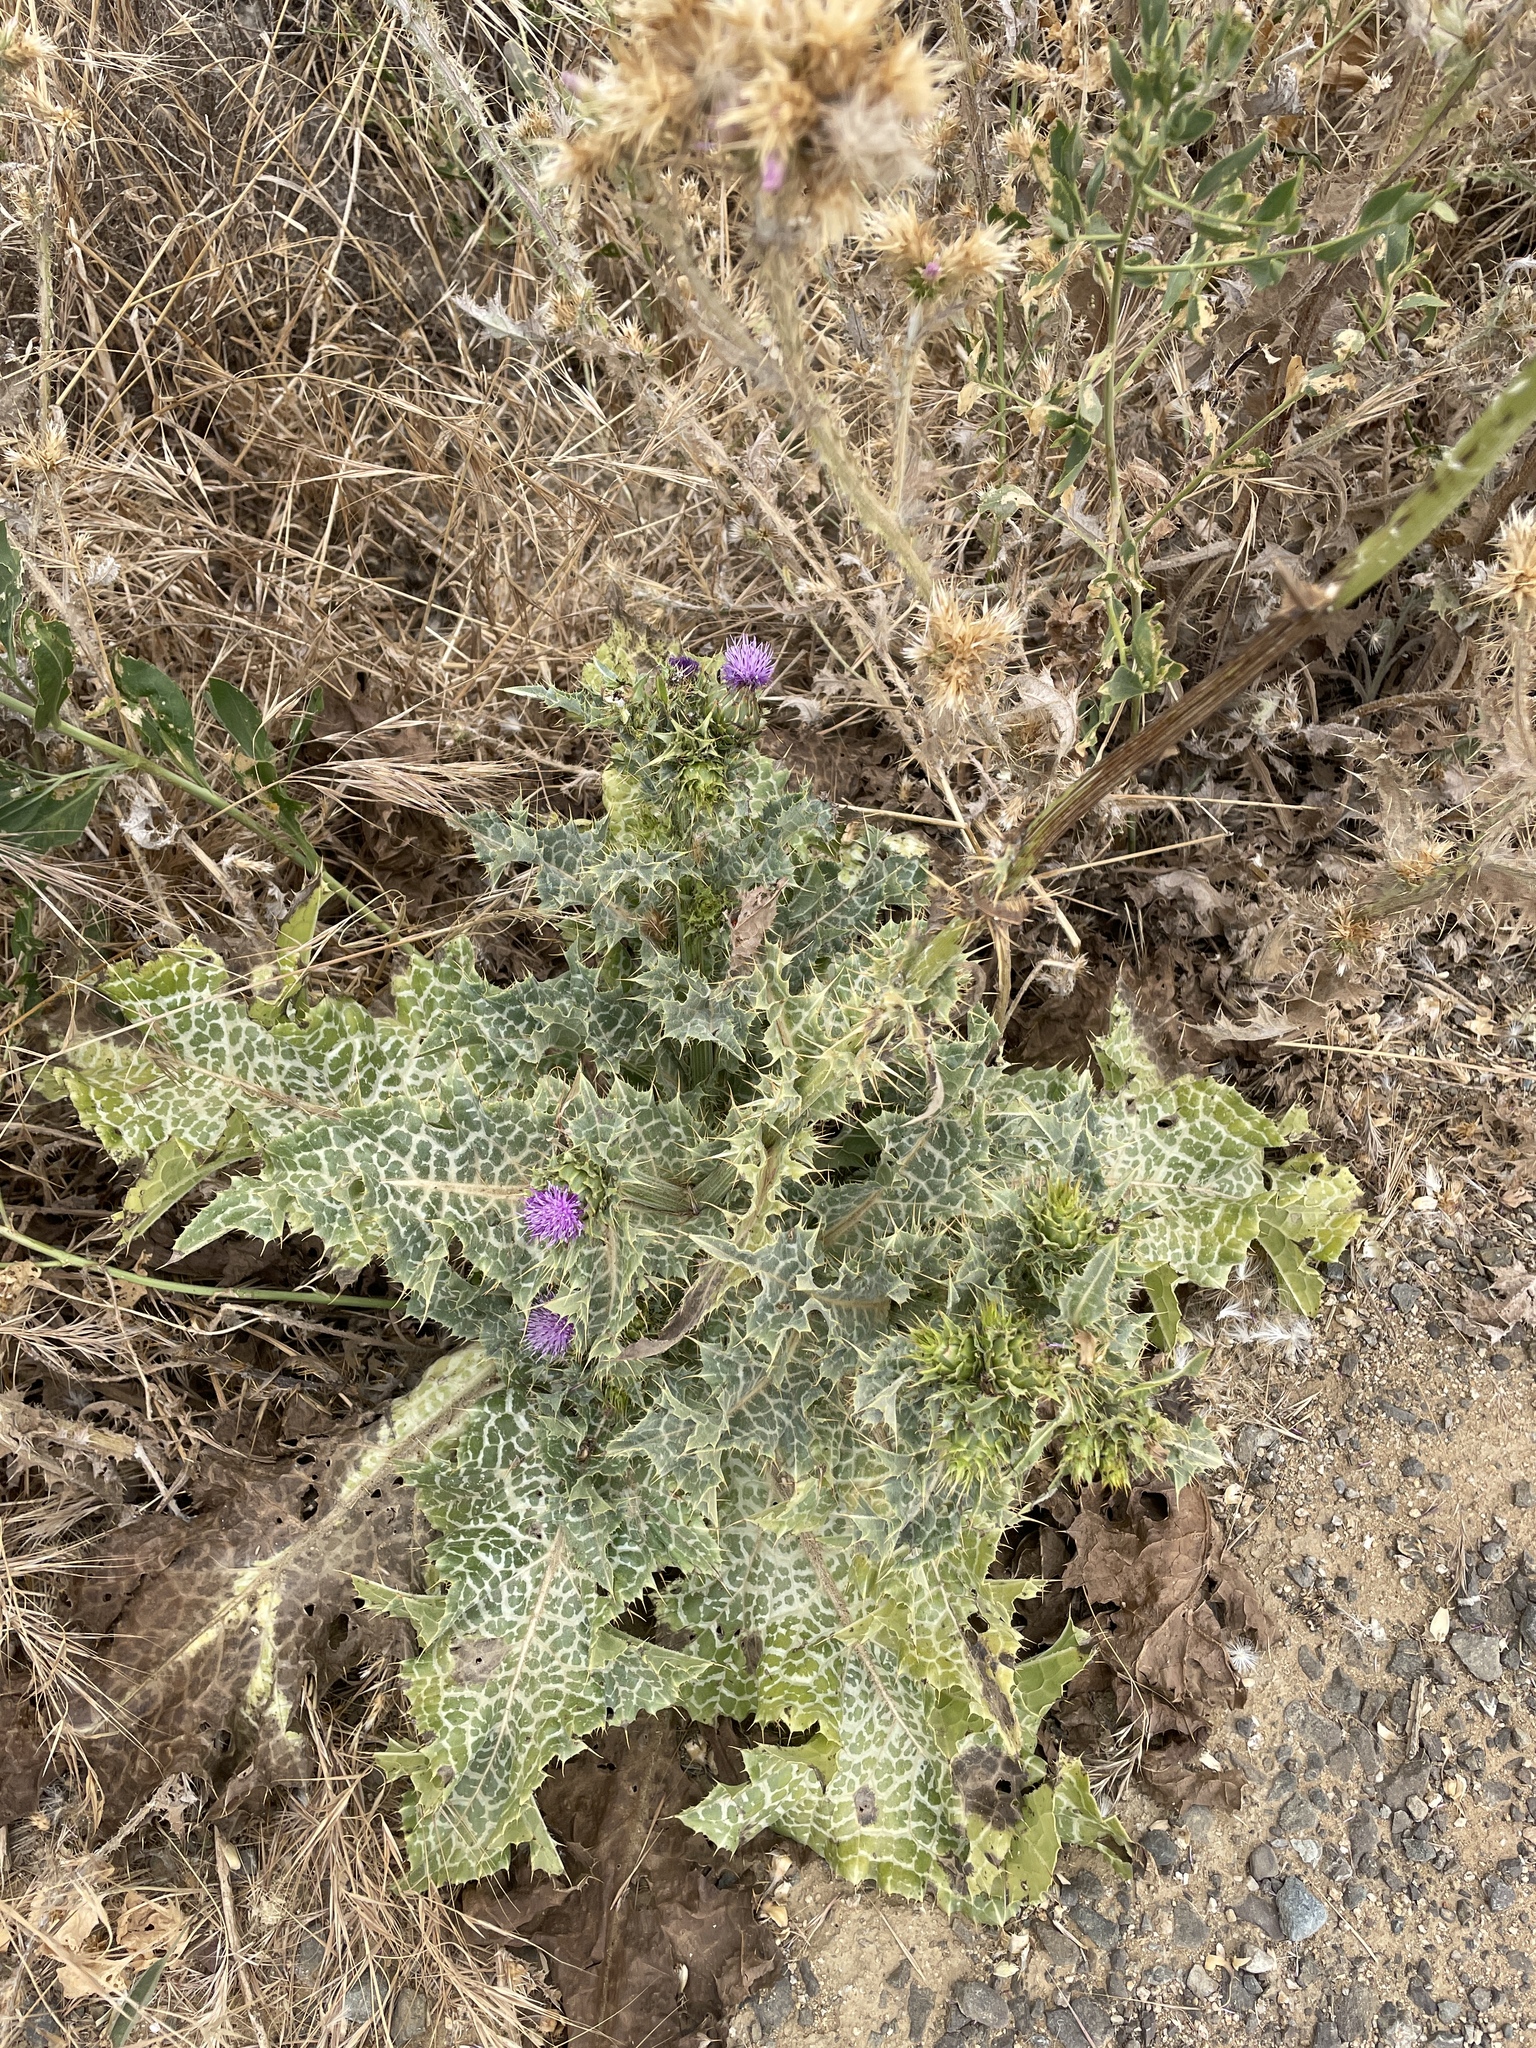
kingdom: Plantae
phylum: Tracheophyta
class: Magnoliopsida
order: Asterales
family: Asteraceae
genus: Silybum
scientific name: Silybum marianum
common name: Milk thistle
